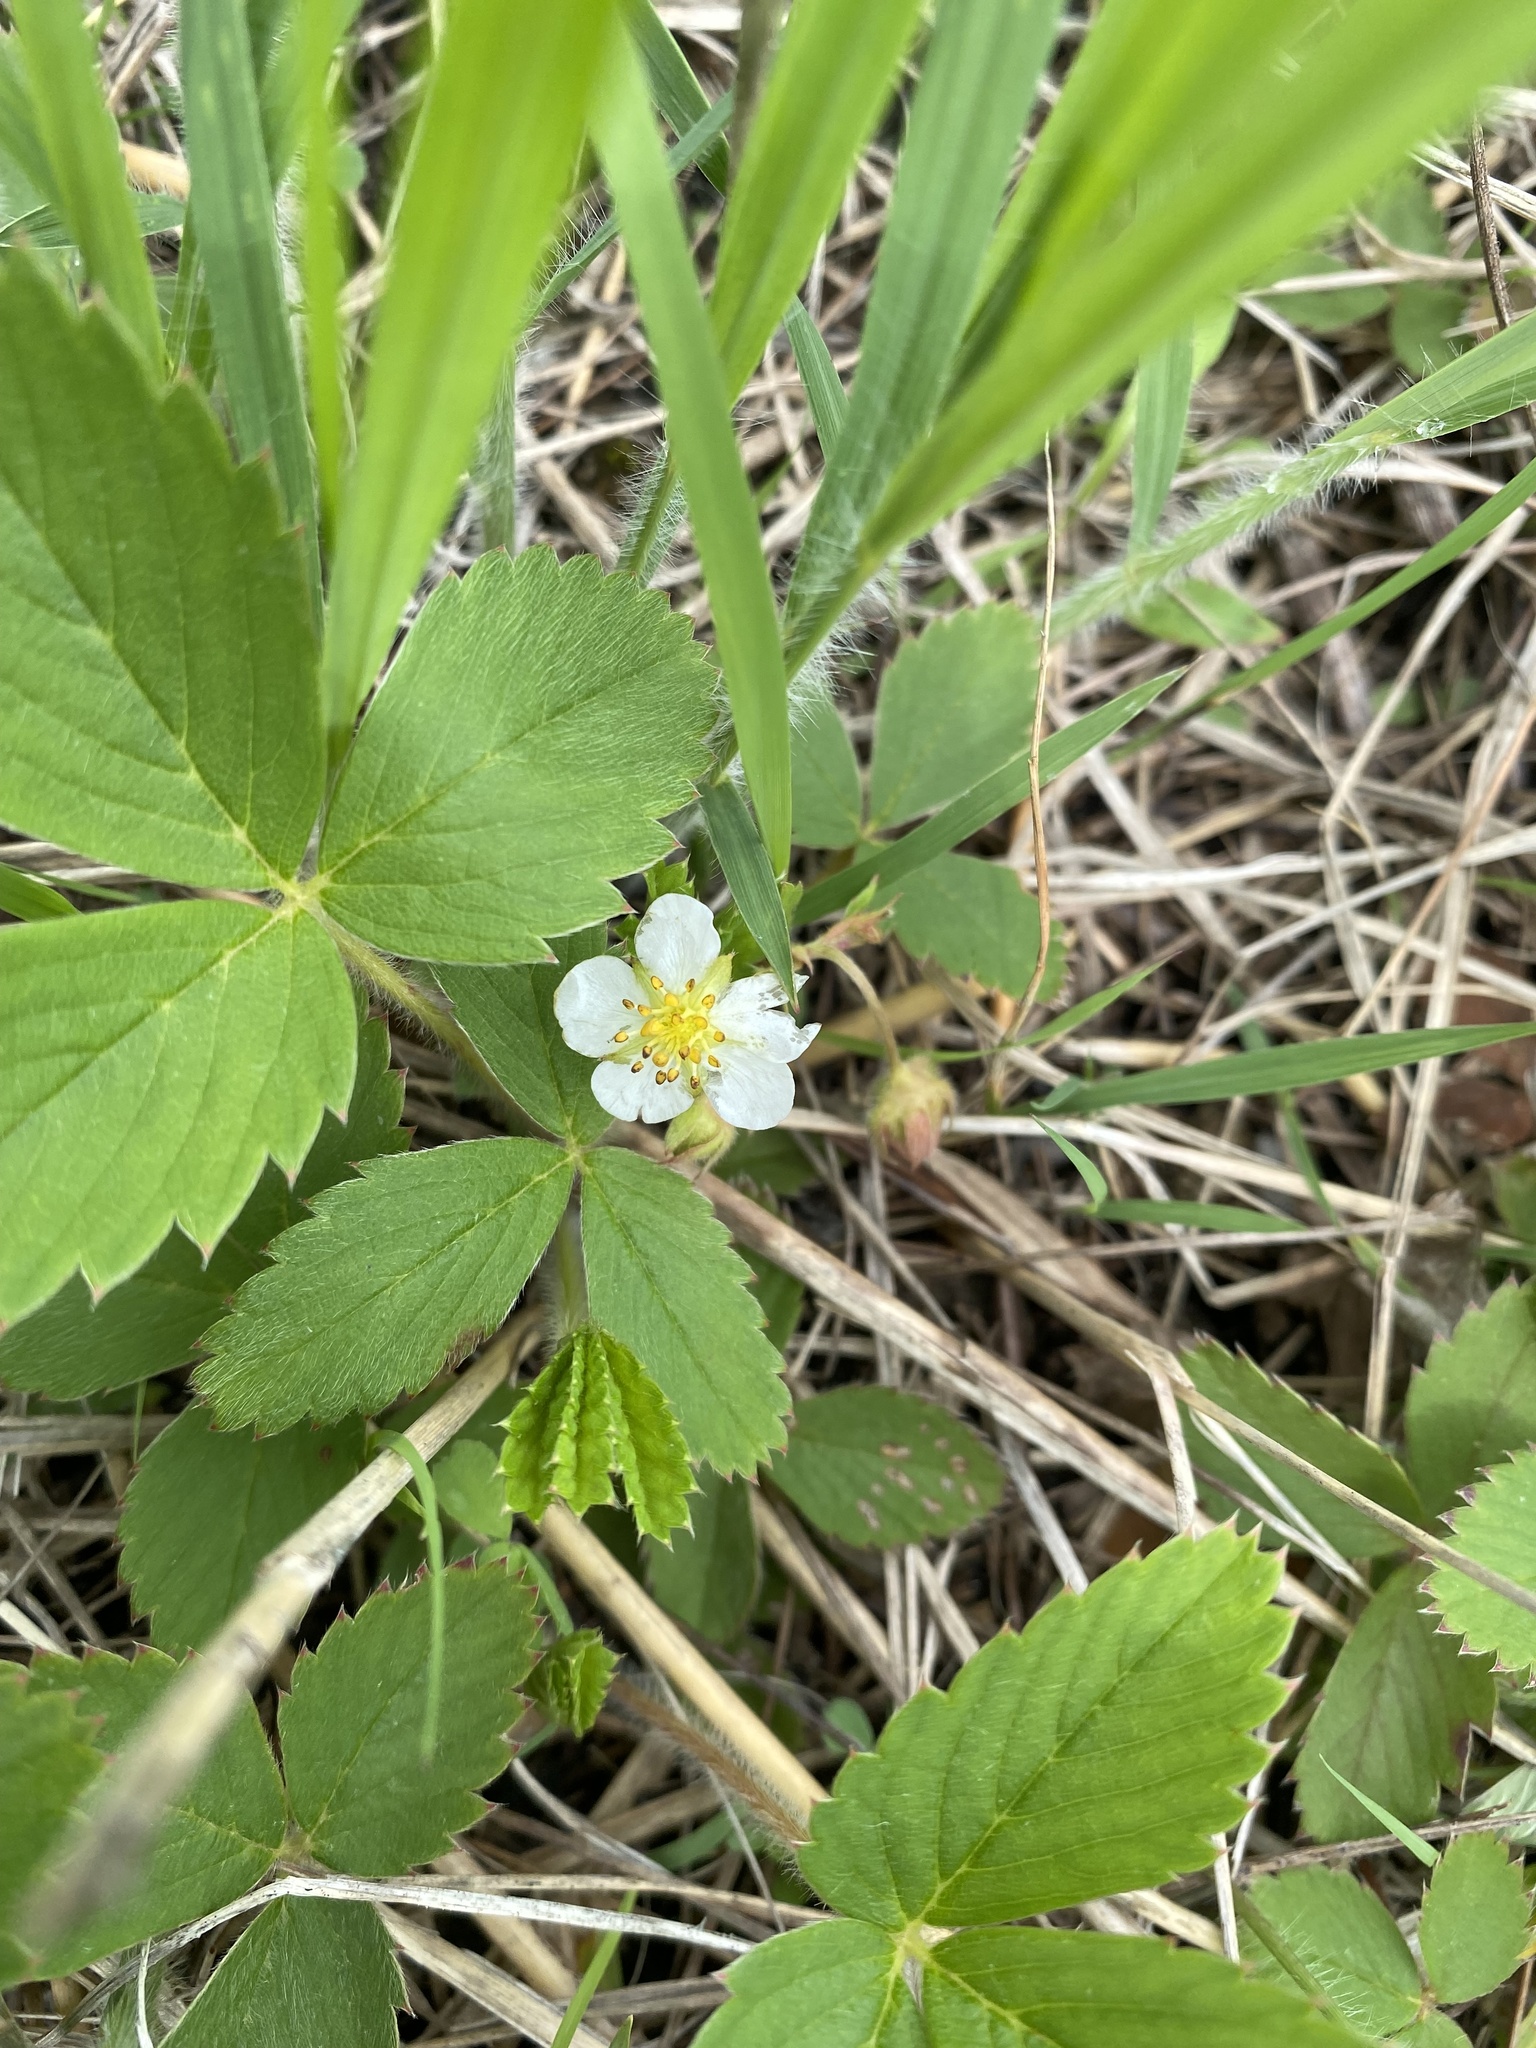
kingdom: Plantae
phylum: Tracheophyta
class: Magnoliopsida
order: Rosales
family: Rosaceae
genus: Fragaria
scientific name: Fragaria virginiana
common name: Thickleaved wild strawberry
